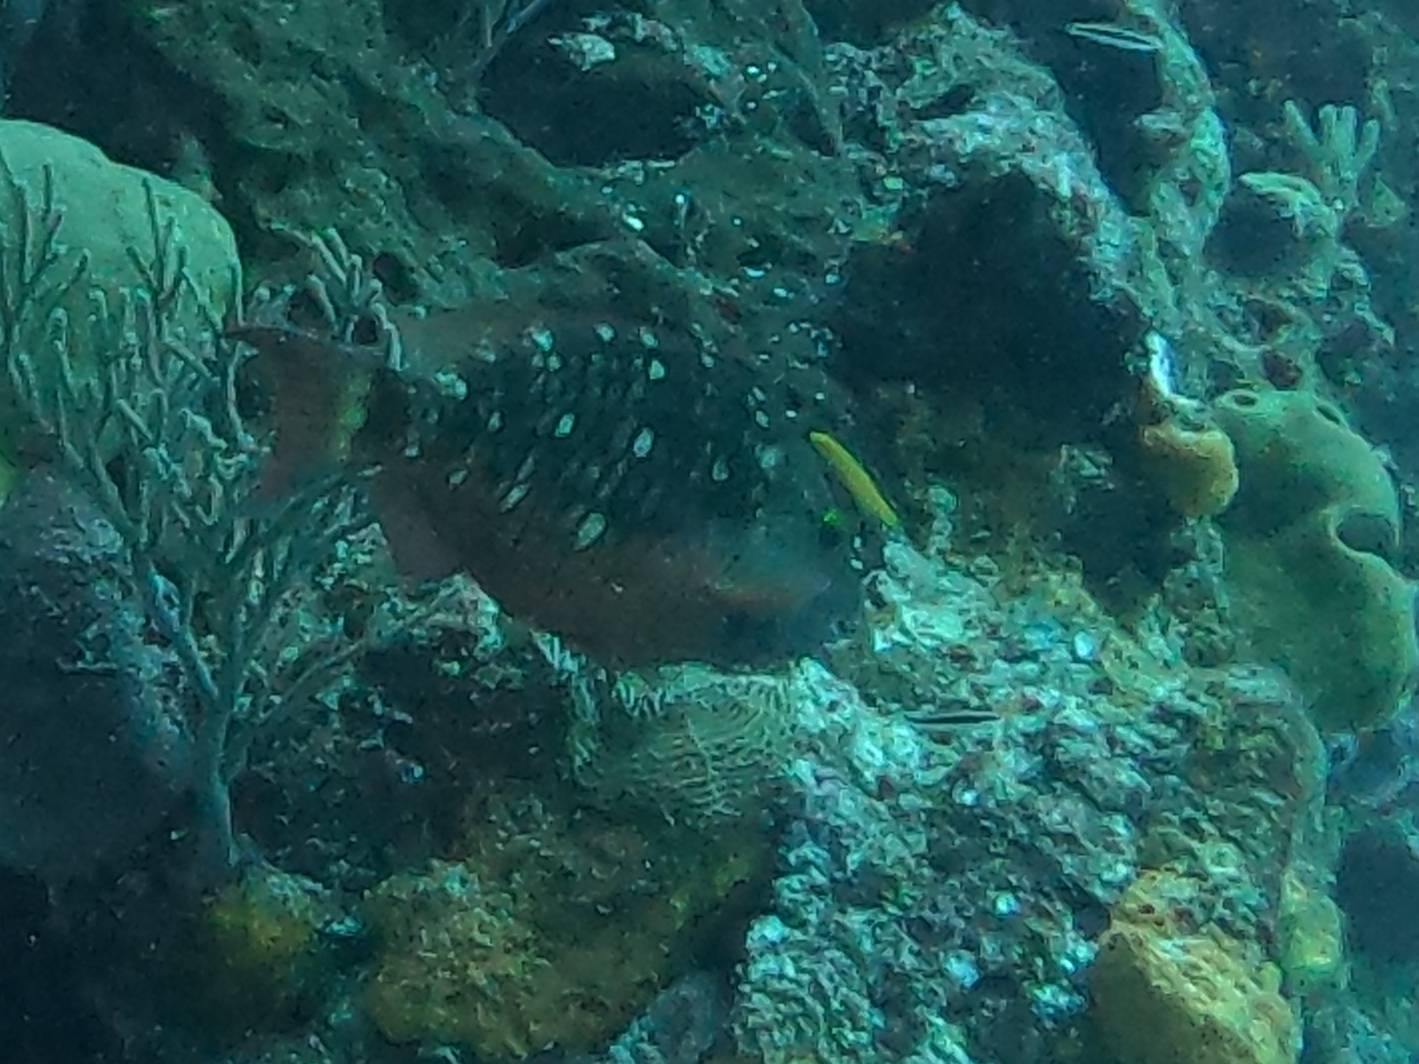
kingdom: Animalia
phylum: Chordata
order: Perciformes
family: Scaridae
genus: Sparisoma
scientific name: Sparisoma viride
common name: Stoplight parrotfish
